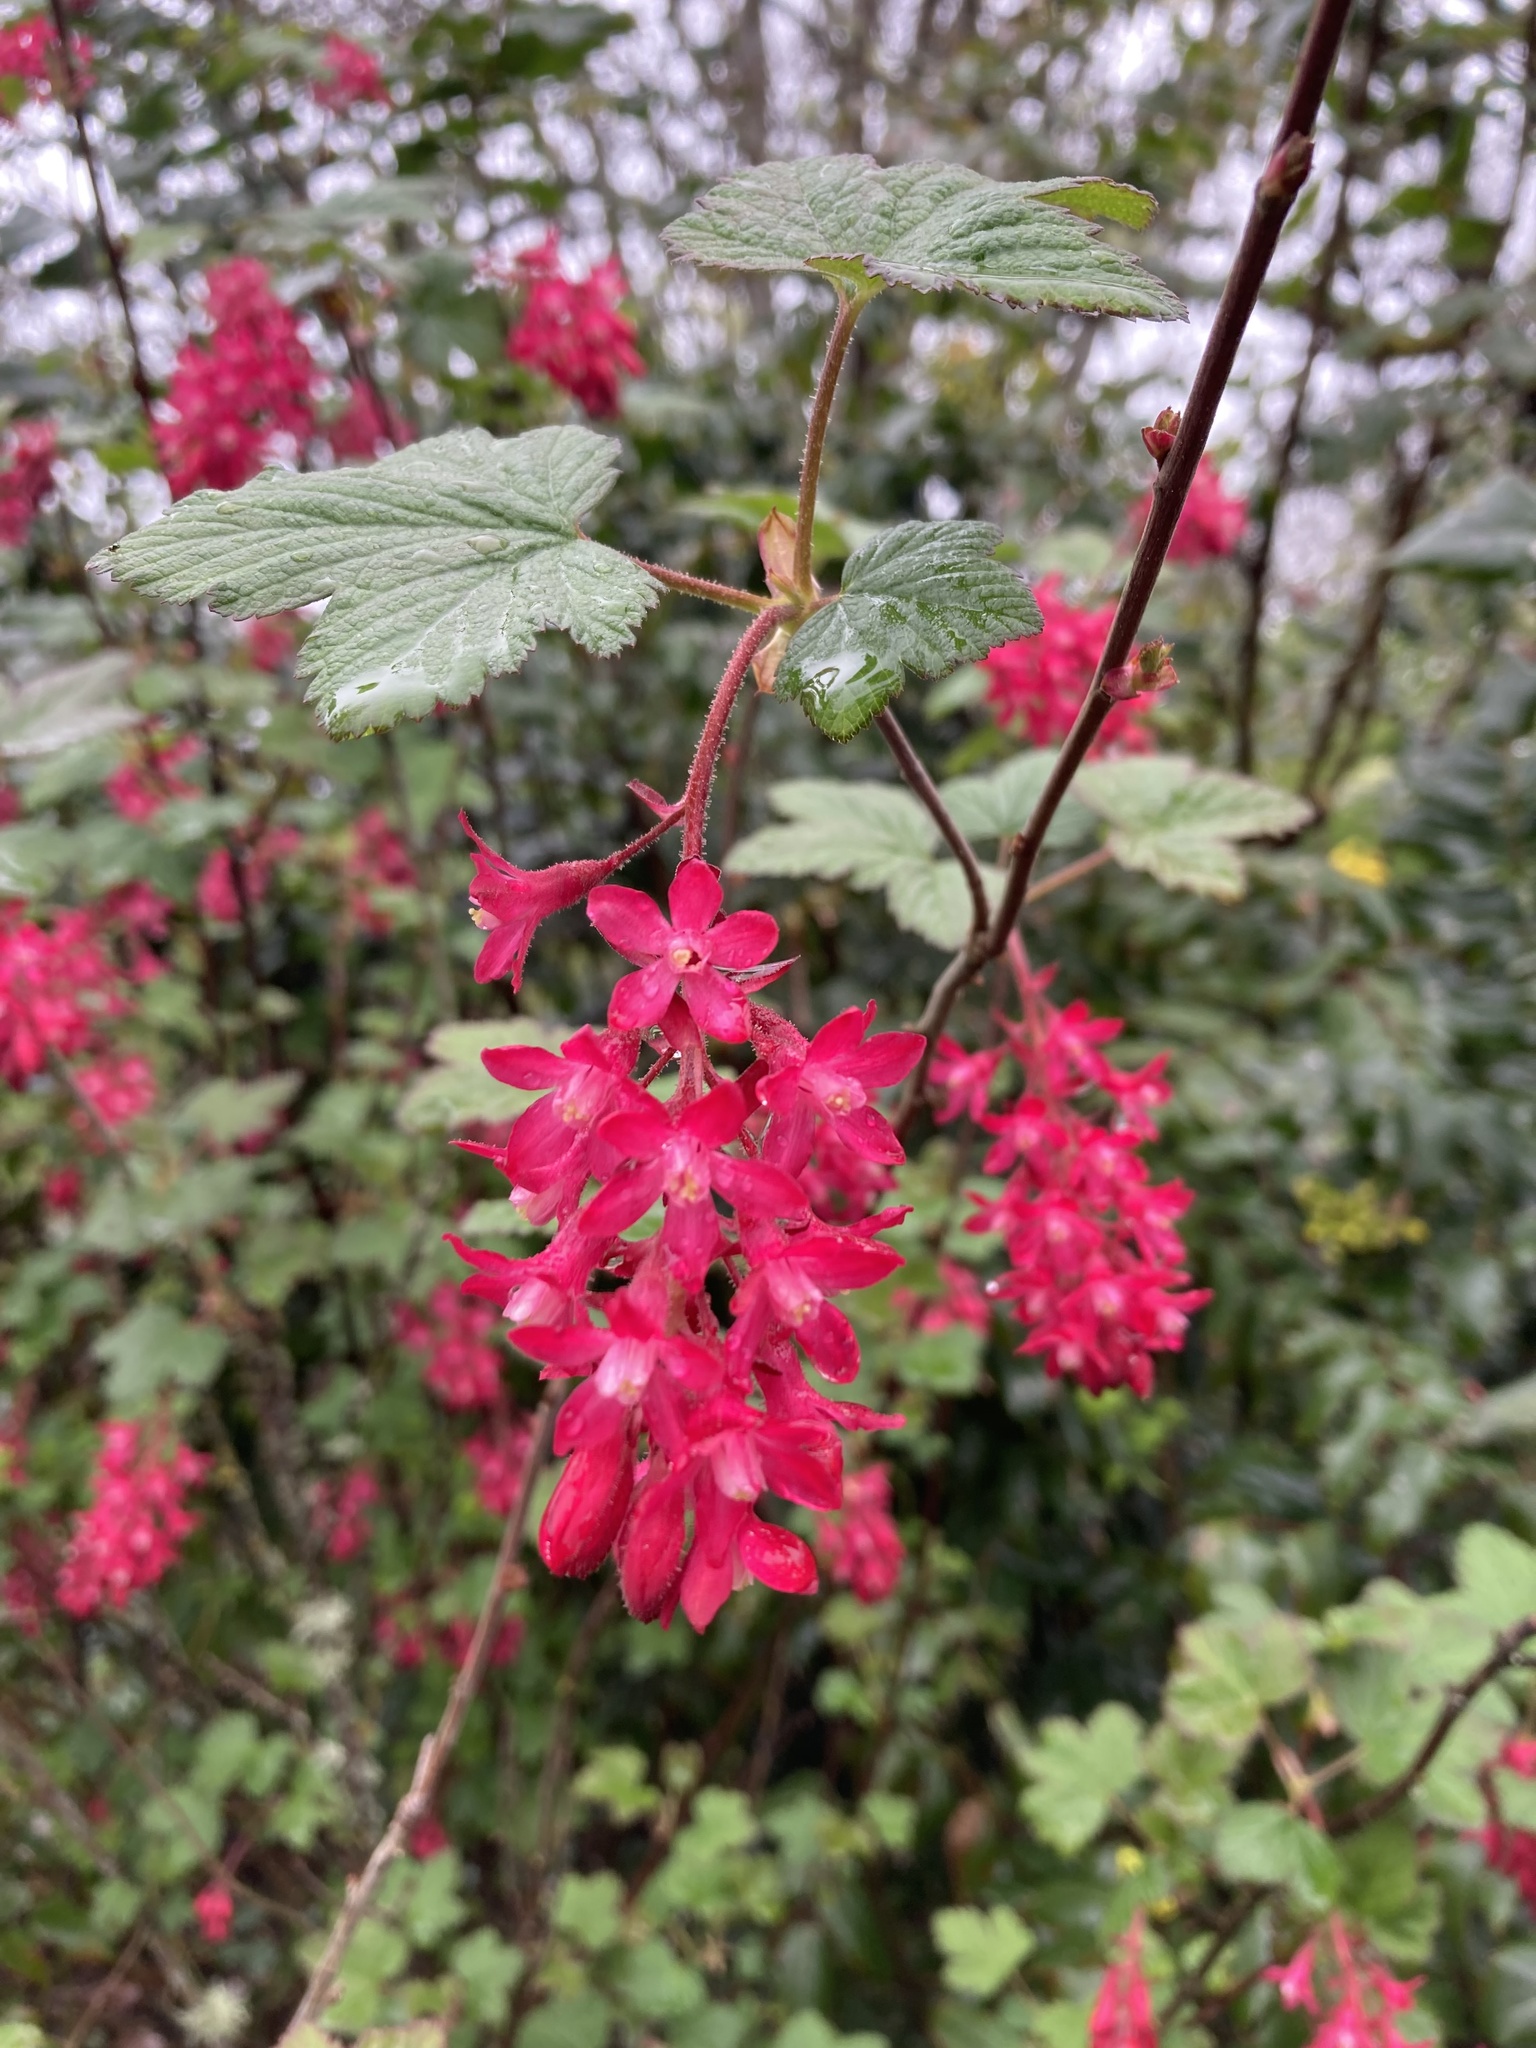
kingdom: Plantae
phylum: Tracheophyta
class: Magnoliopsida
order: Saxifragales
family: Grossulariaceae
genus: Ribes
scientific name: Ribes sanguineum
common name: Flowering currant
